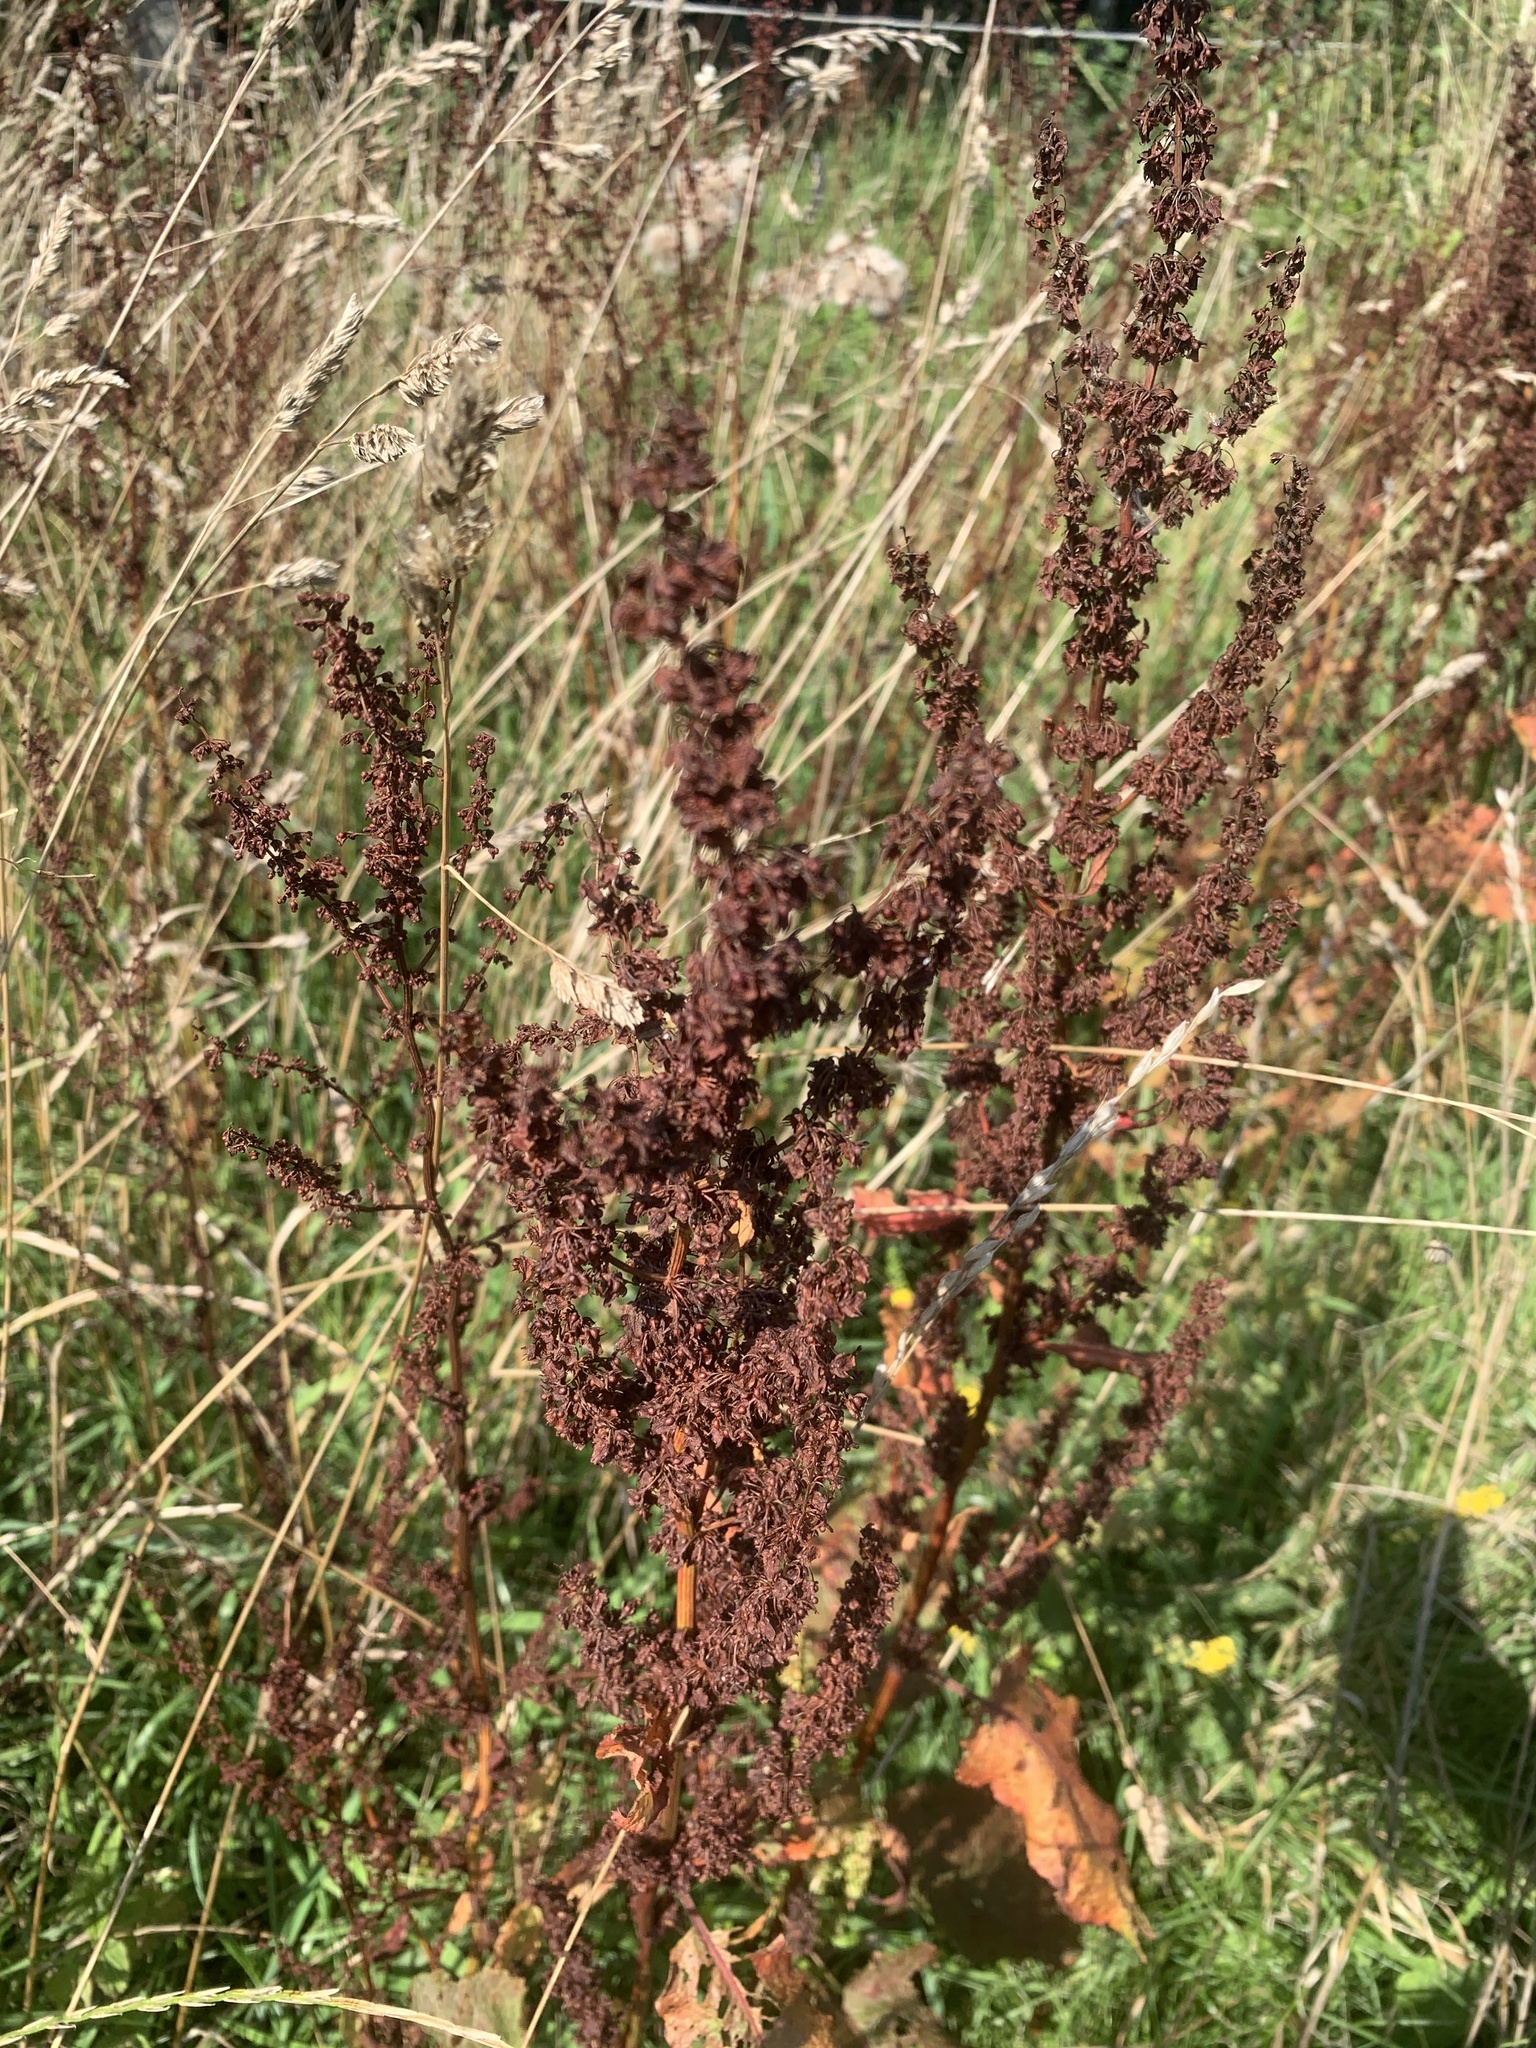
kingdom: Plantae
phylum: Tracheophyta
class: Magnoliopsida
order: Caryophyllales
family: Polygonaceae
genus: Rumex
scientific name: Rumex crispus
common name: Curled dock
